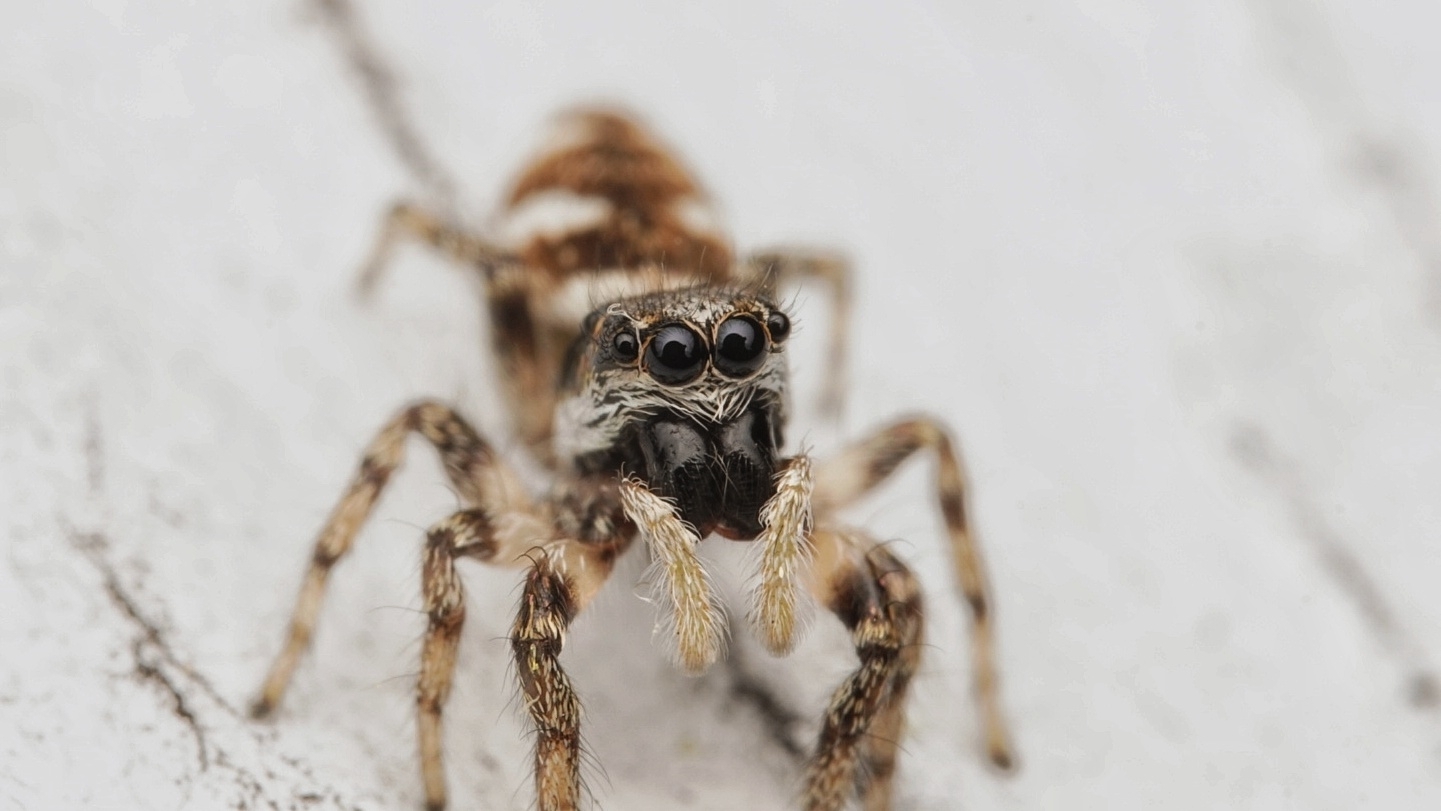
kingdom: Animalia
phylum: Arthropoda
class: Arachnida
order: Araneae
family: Salticidae
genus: Salticus
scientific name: Salticus scenicus
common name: Zebra jumper
